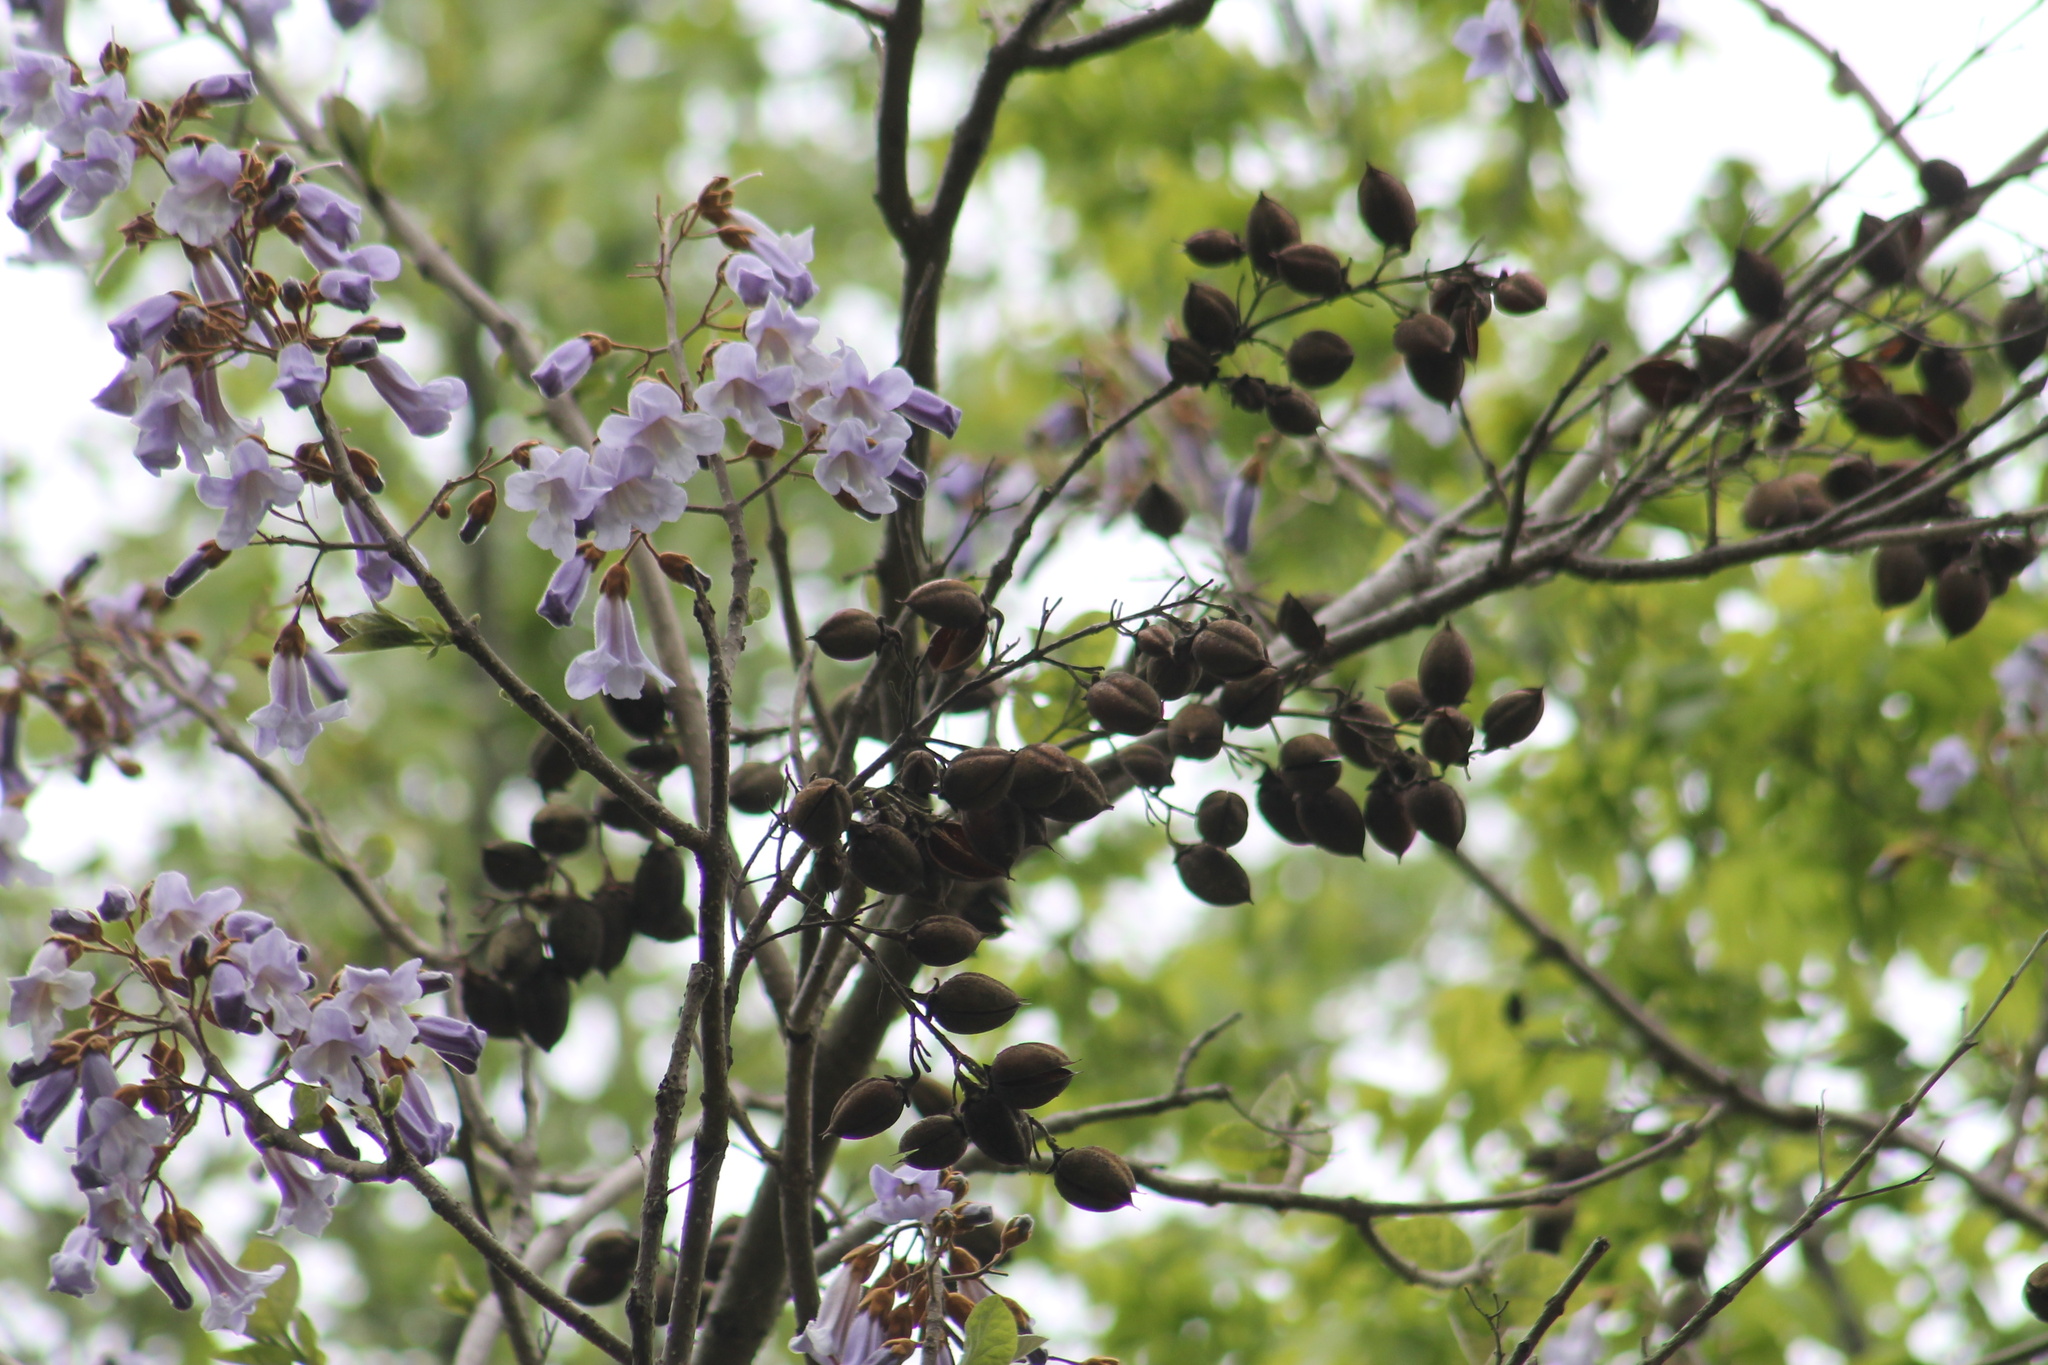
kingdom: Plantae
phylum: Tracheophyta
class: Magnoliopsida
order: Lamiales
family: Paulowniaceae
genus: Paulownia
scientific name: Paulownia tomentosa
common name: Foxglove-tree
